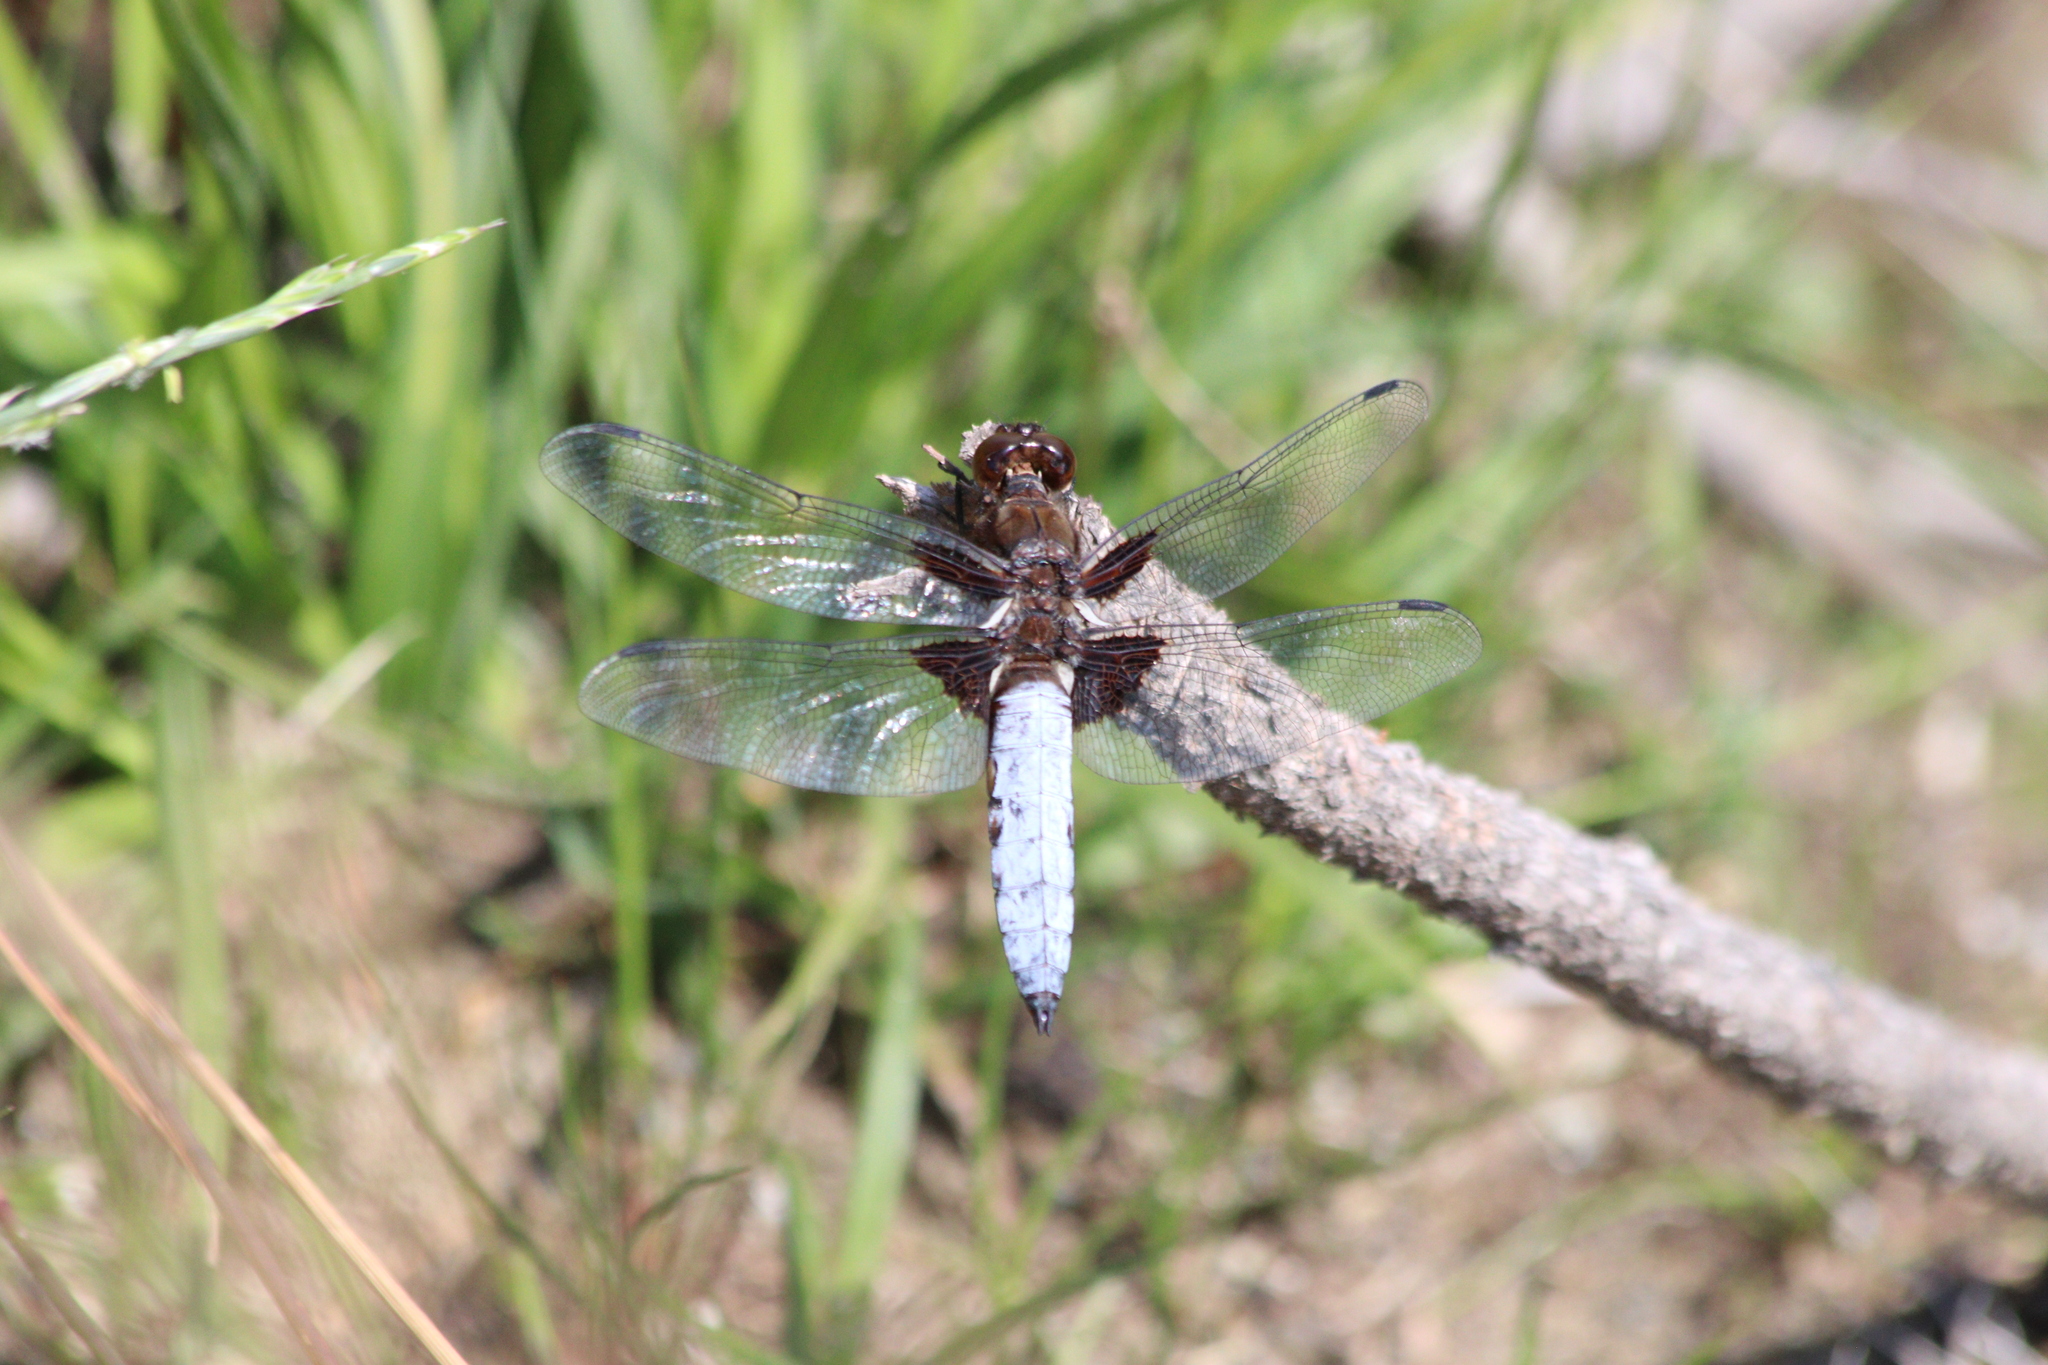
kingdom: Animalia
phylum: Arthropoda
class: Insecta
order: Odonata
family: Libellulidae
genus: Libellula
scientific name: Libellula depressa
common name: Broad-bodied chaser
